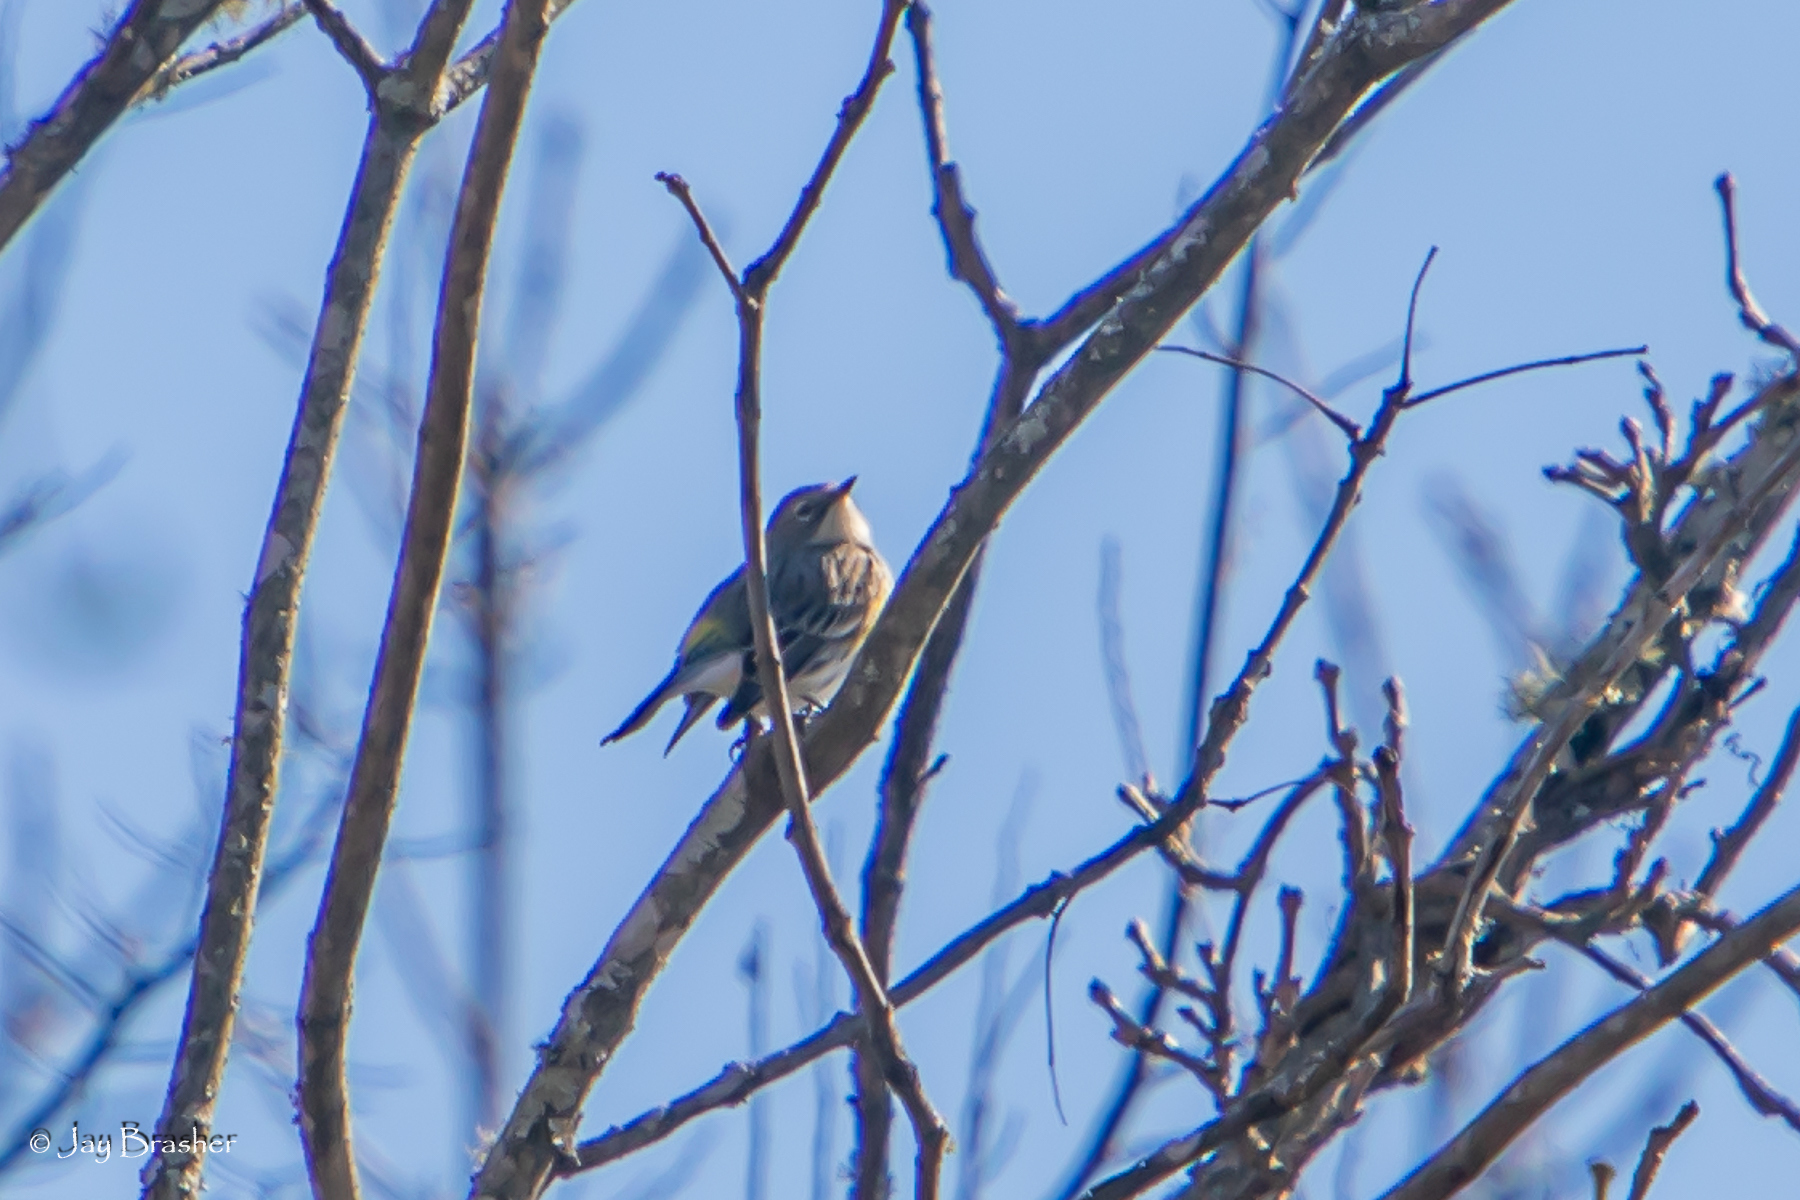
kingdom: Animalia
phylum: Chordata
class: Aves
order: Passeriformes
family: Parulidae
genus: Setophaga
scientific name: Setophaga coronata
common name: Myrtle warbler
